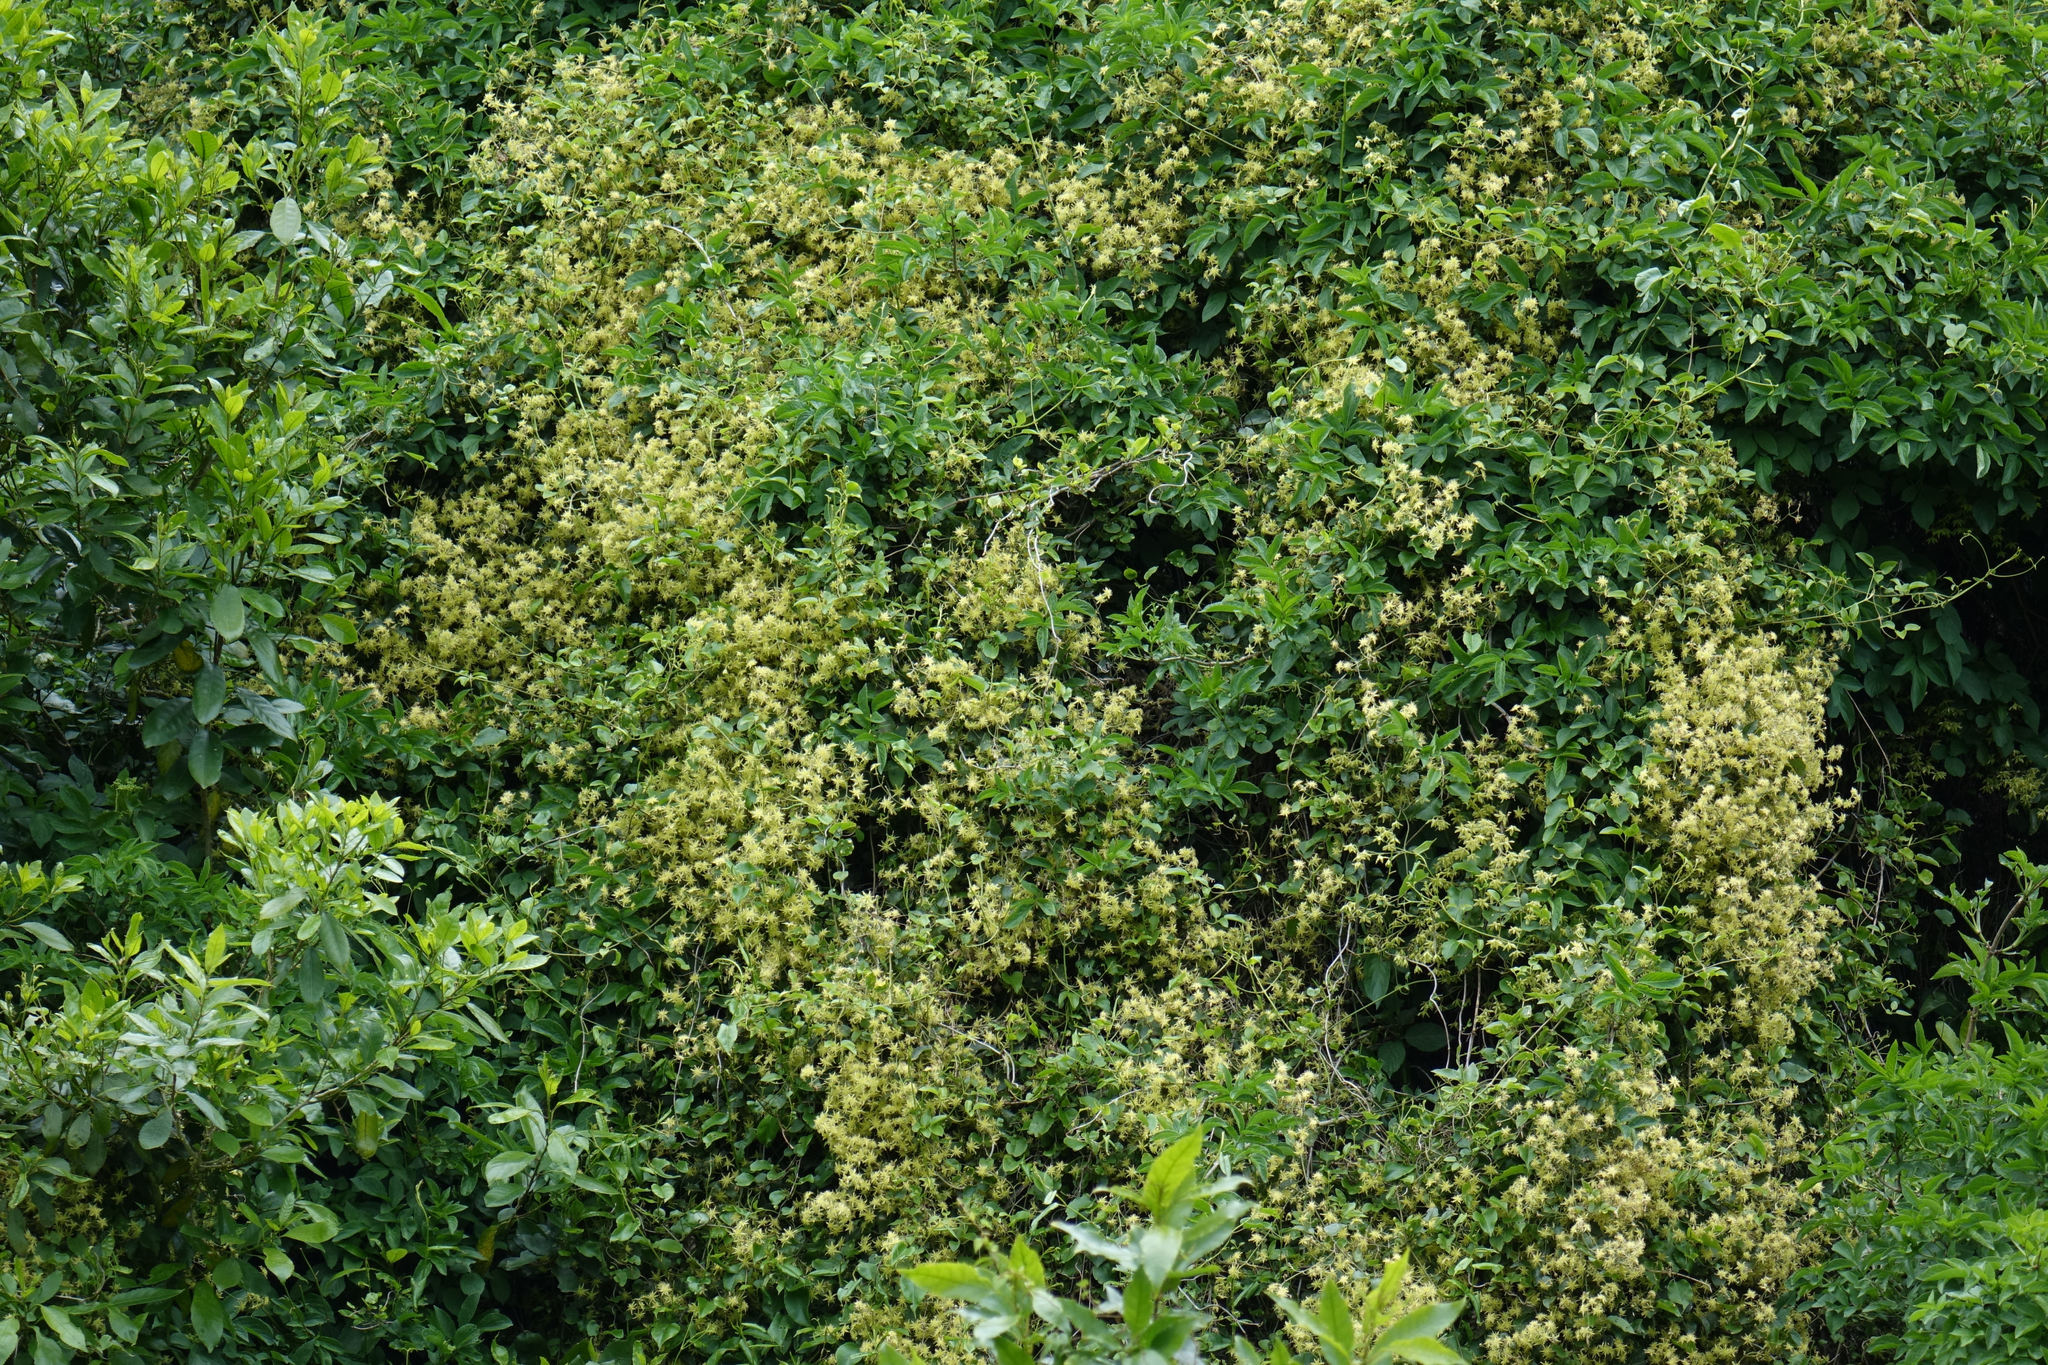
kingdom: Plantae
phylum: Tracheophyta
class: Magnoliopsida
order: Ranunculales
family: Ranunculaceae
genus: Clematis
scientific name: Clematis foetida
